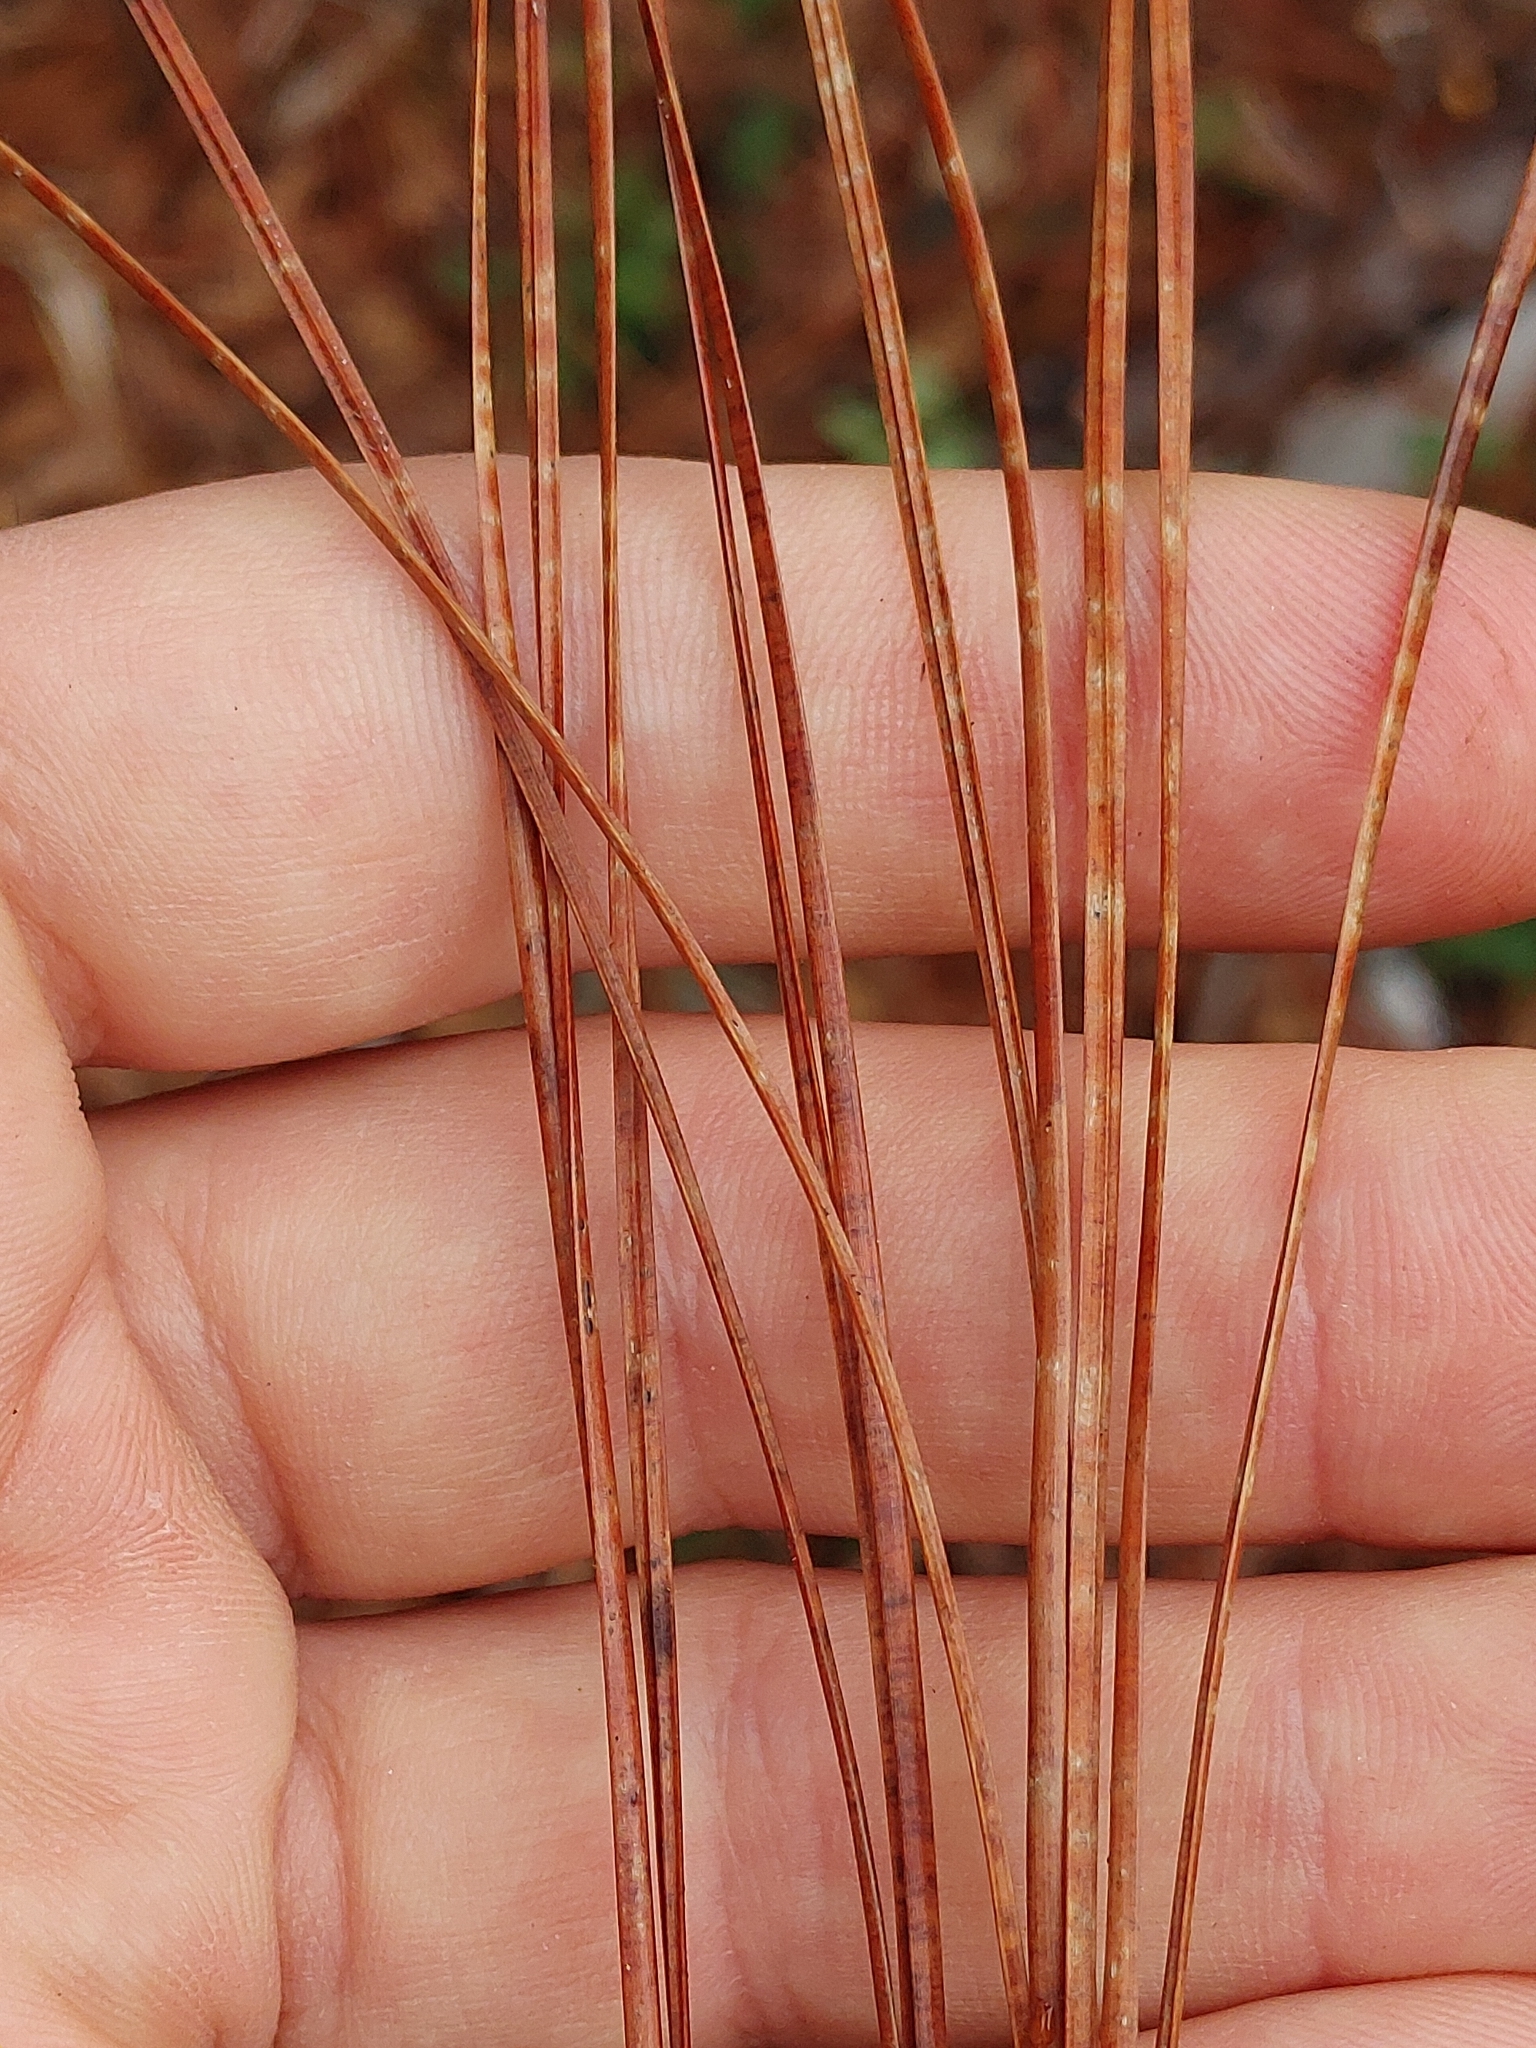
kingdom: Plantae
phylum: Tracheophyta
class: Pinopsida
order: Pinales
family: Pinaceae
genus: Pinus
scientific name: Pinus serotina
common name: Marsh pine
